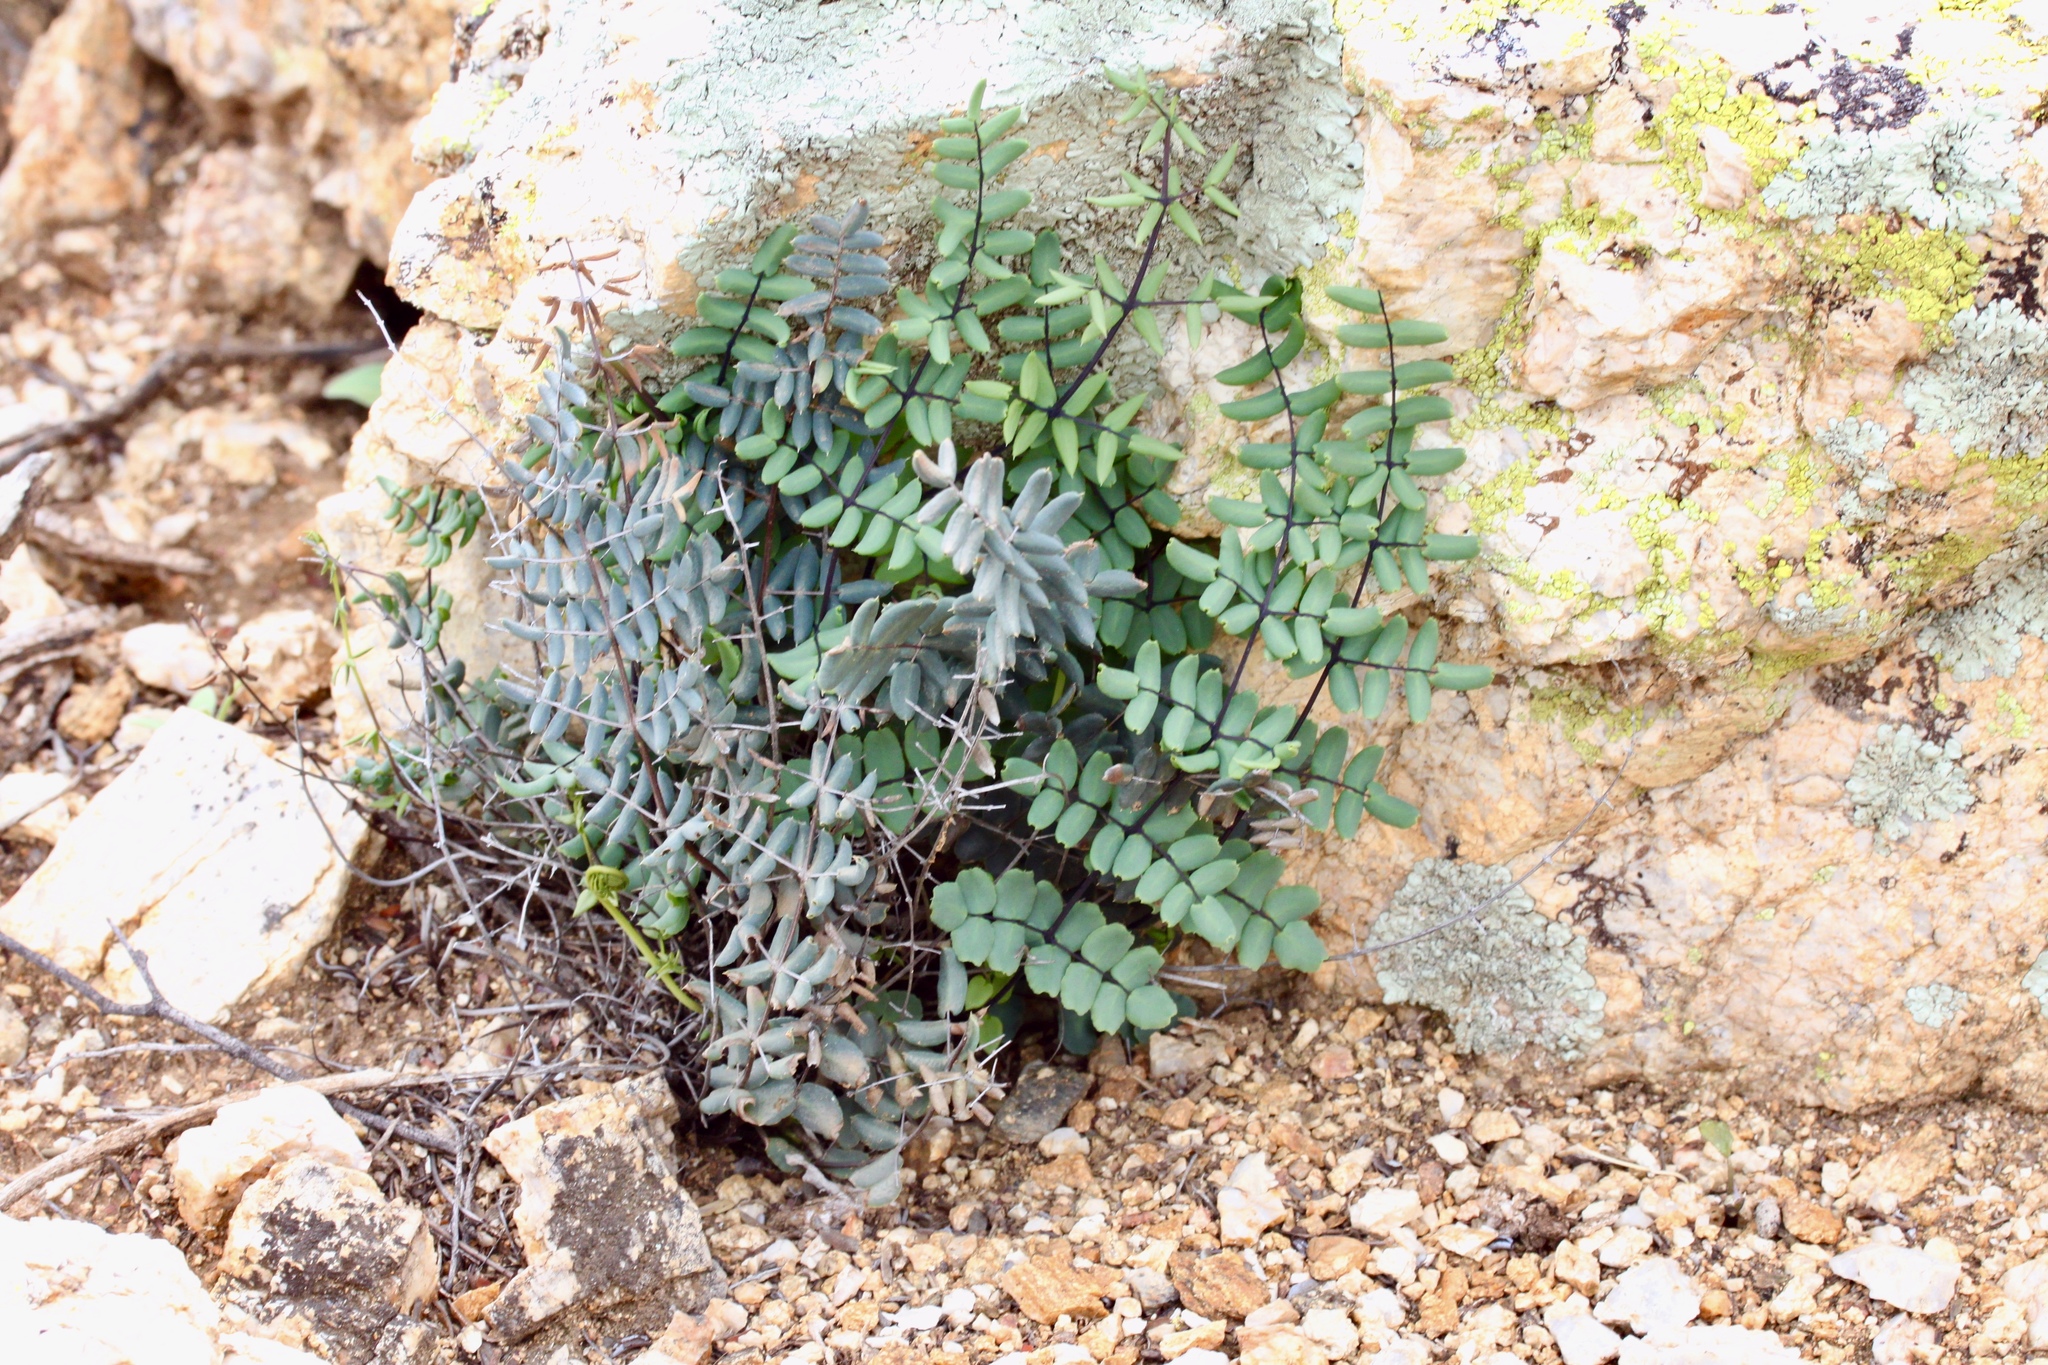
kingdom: Plantae
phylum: Tracheophyta
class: Polypodiopsida
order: Polypodiales
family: Pteridaceae
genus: Pellaea
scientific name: Pellaea truncata
